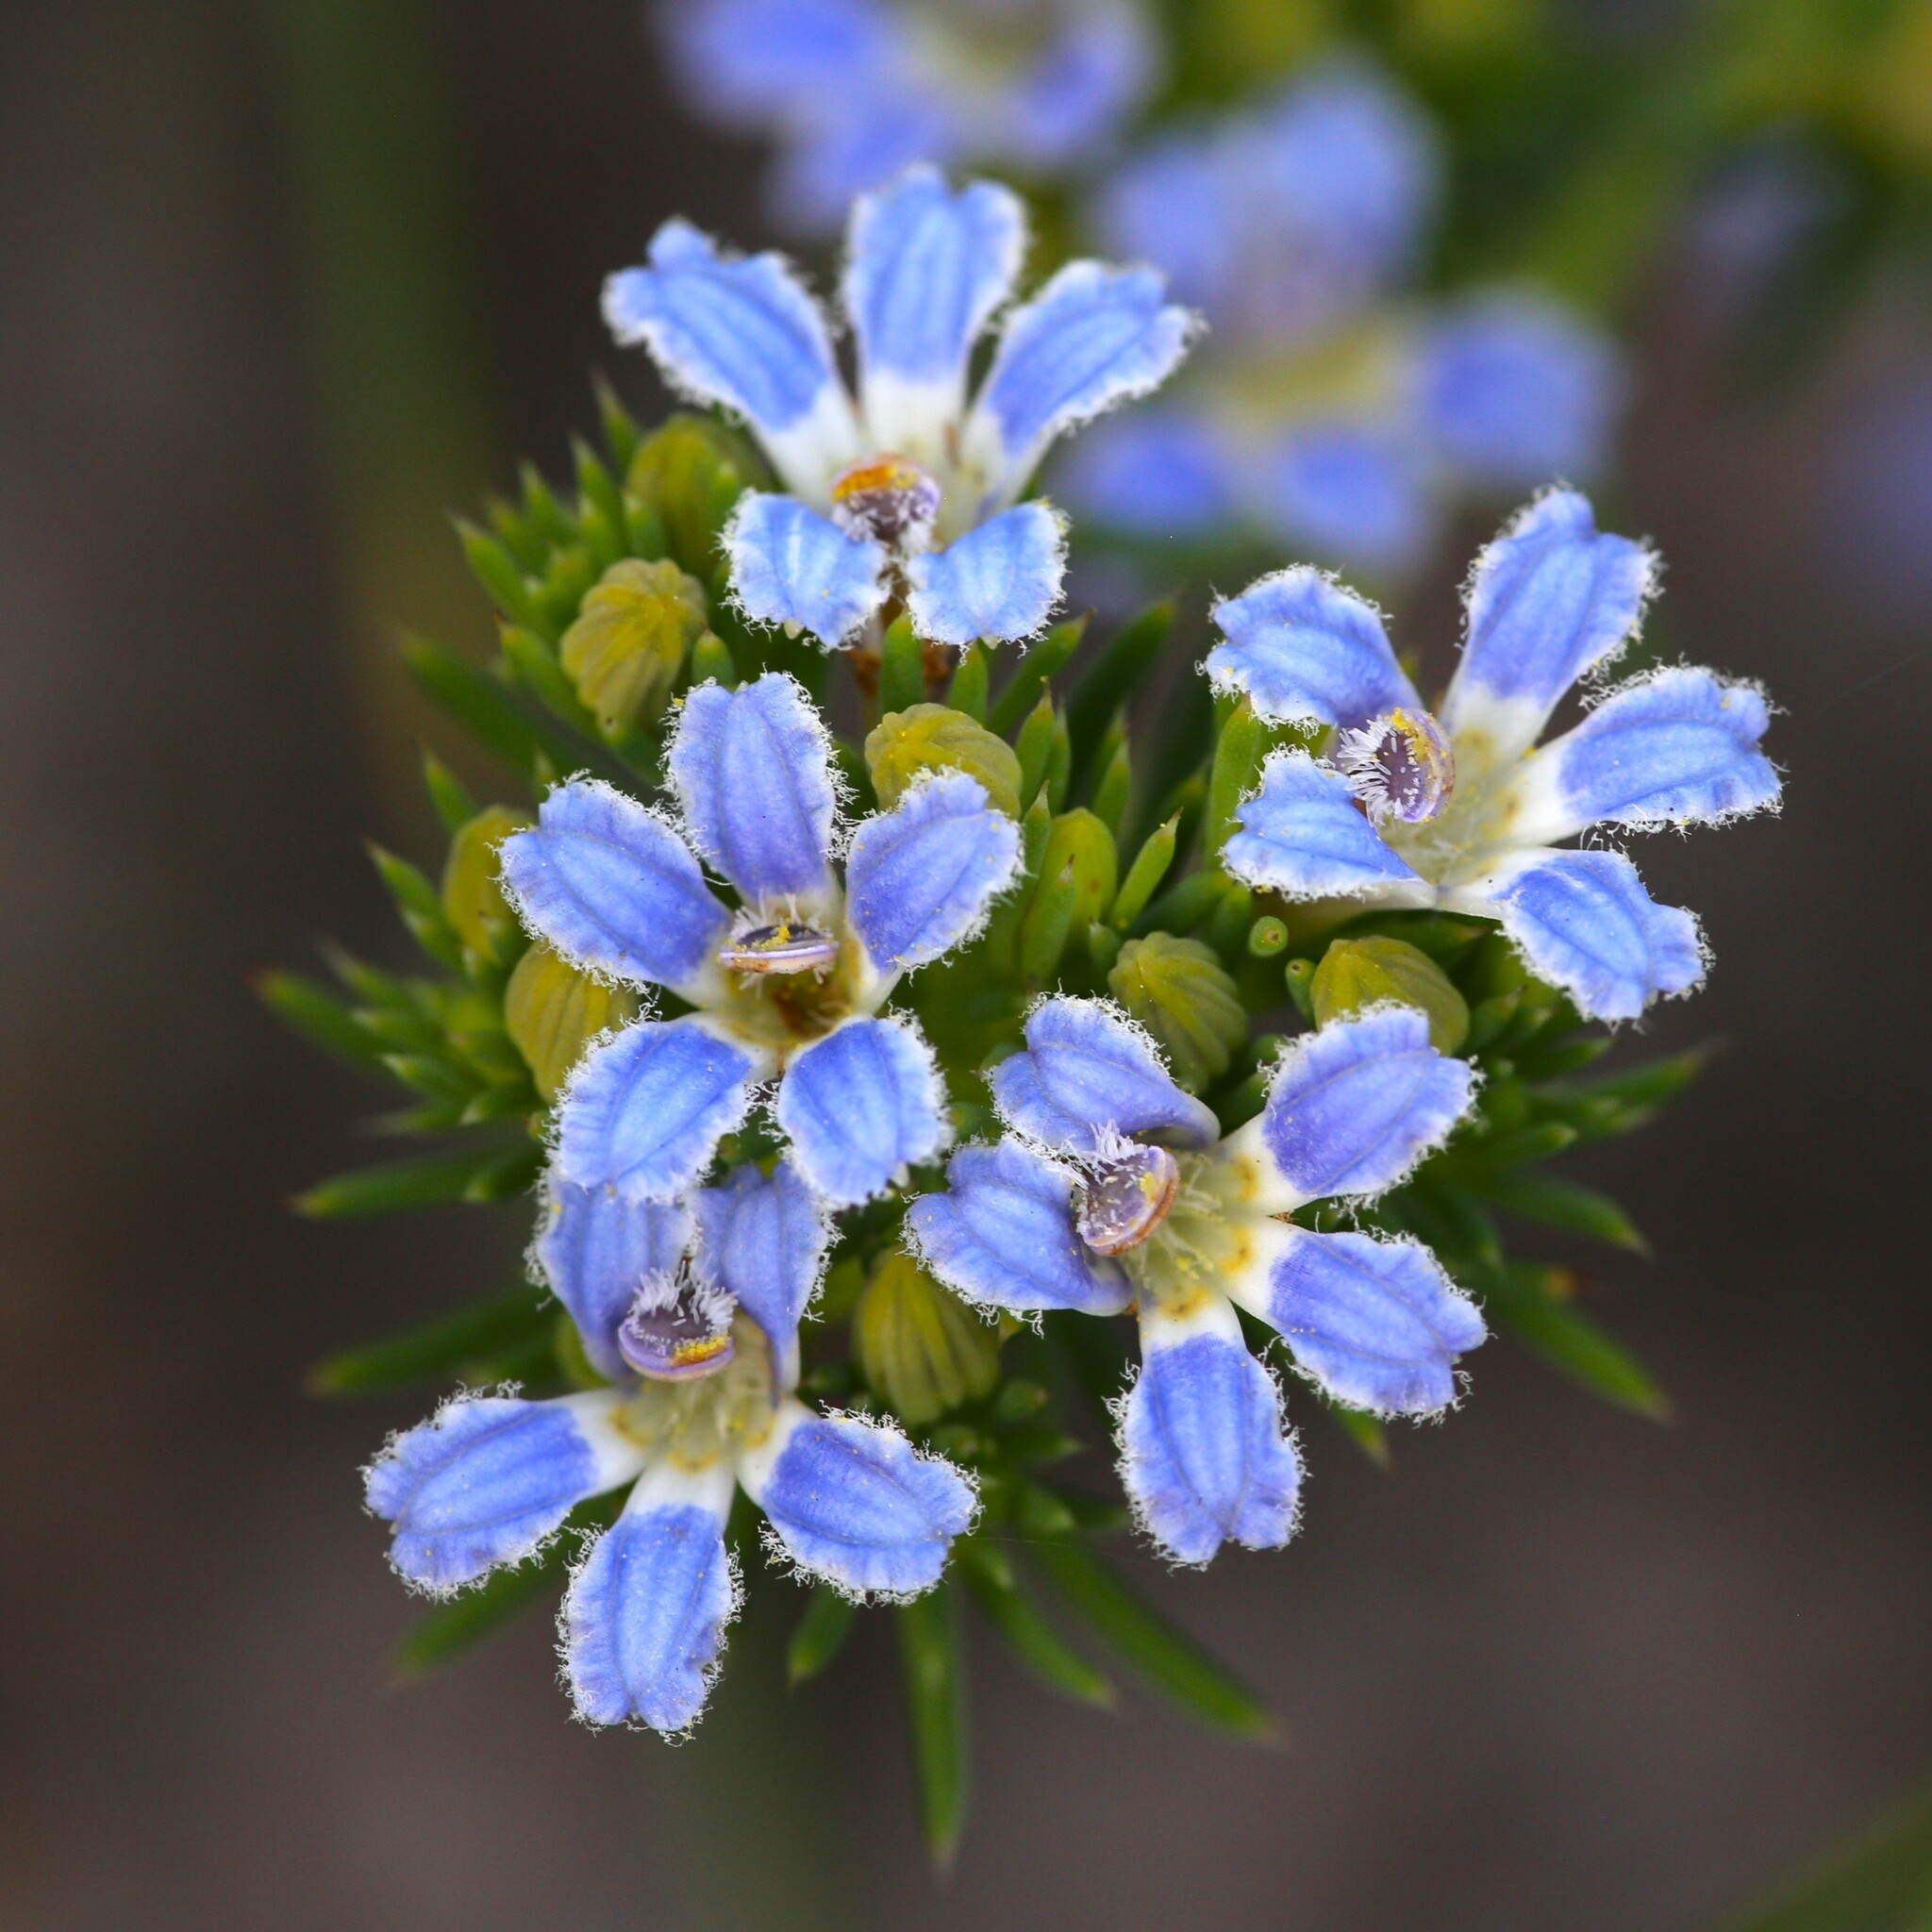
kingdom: Plantae
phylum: Tracheophyta
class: Magnoliopsida
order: Asterales
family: Goodeniaceae
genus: Lechenaultia
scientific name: Lechenaultia expansa
